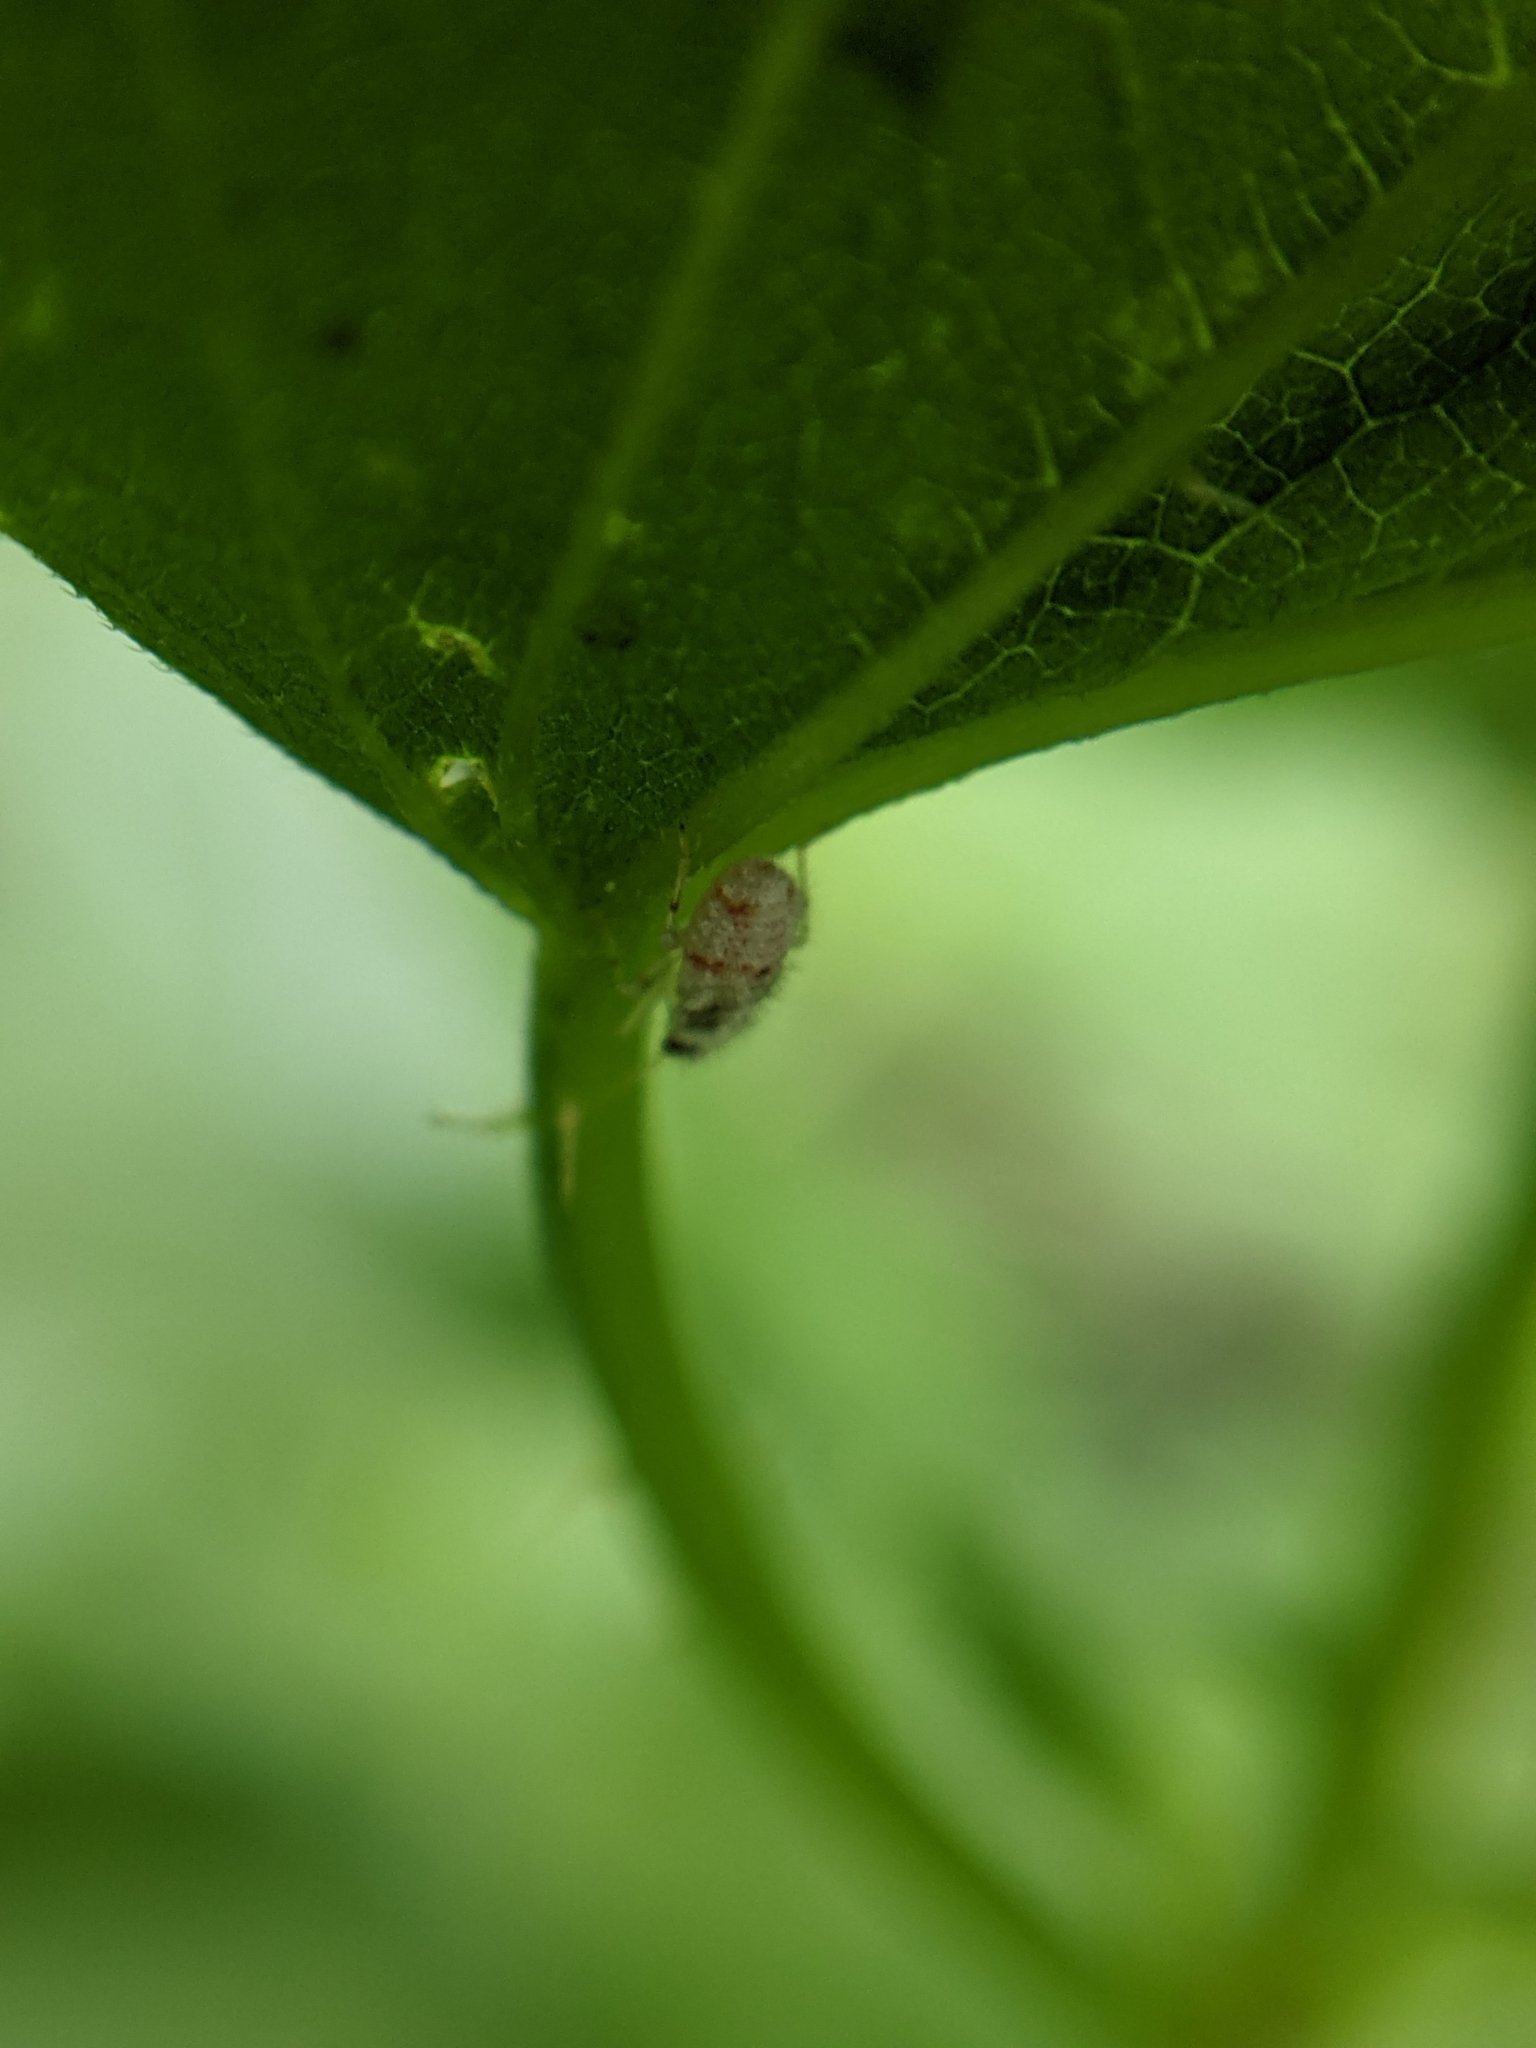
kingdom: Animalia
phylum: Arthropoda
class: Insecta
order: Hemiptera
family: Miridae
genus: Deraeocoris
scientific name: Deraeocoris lutescens
